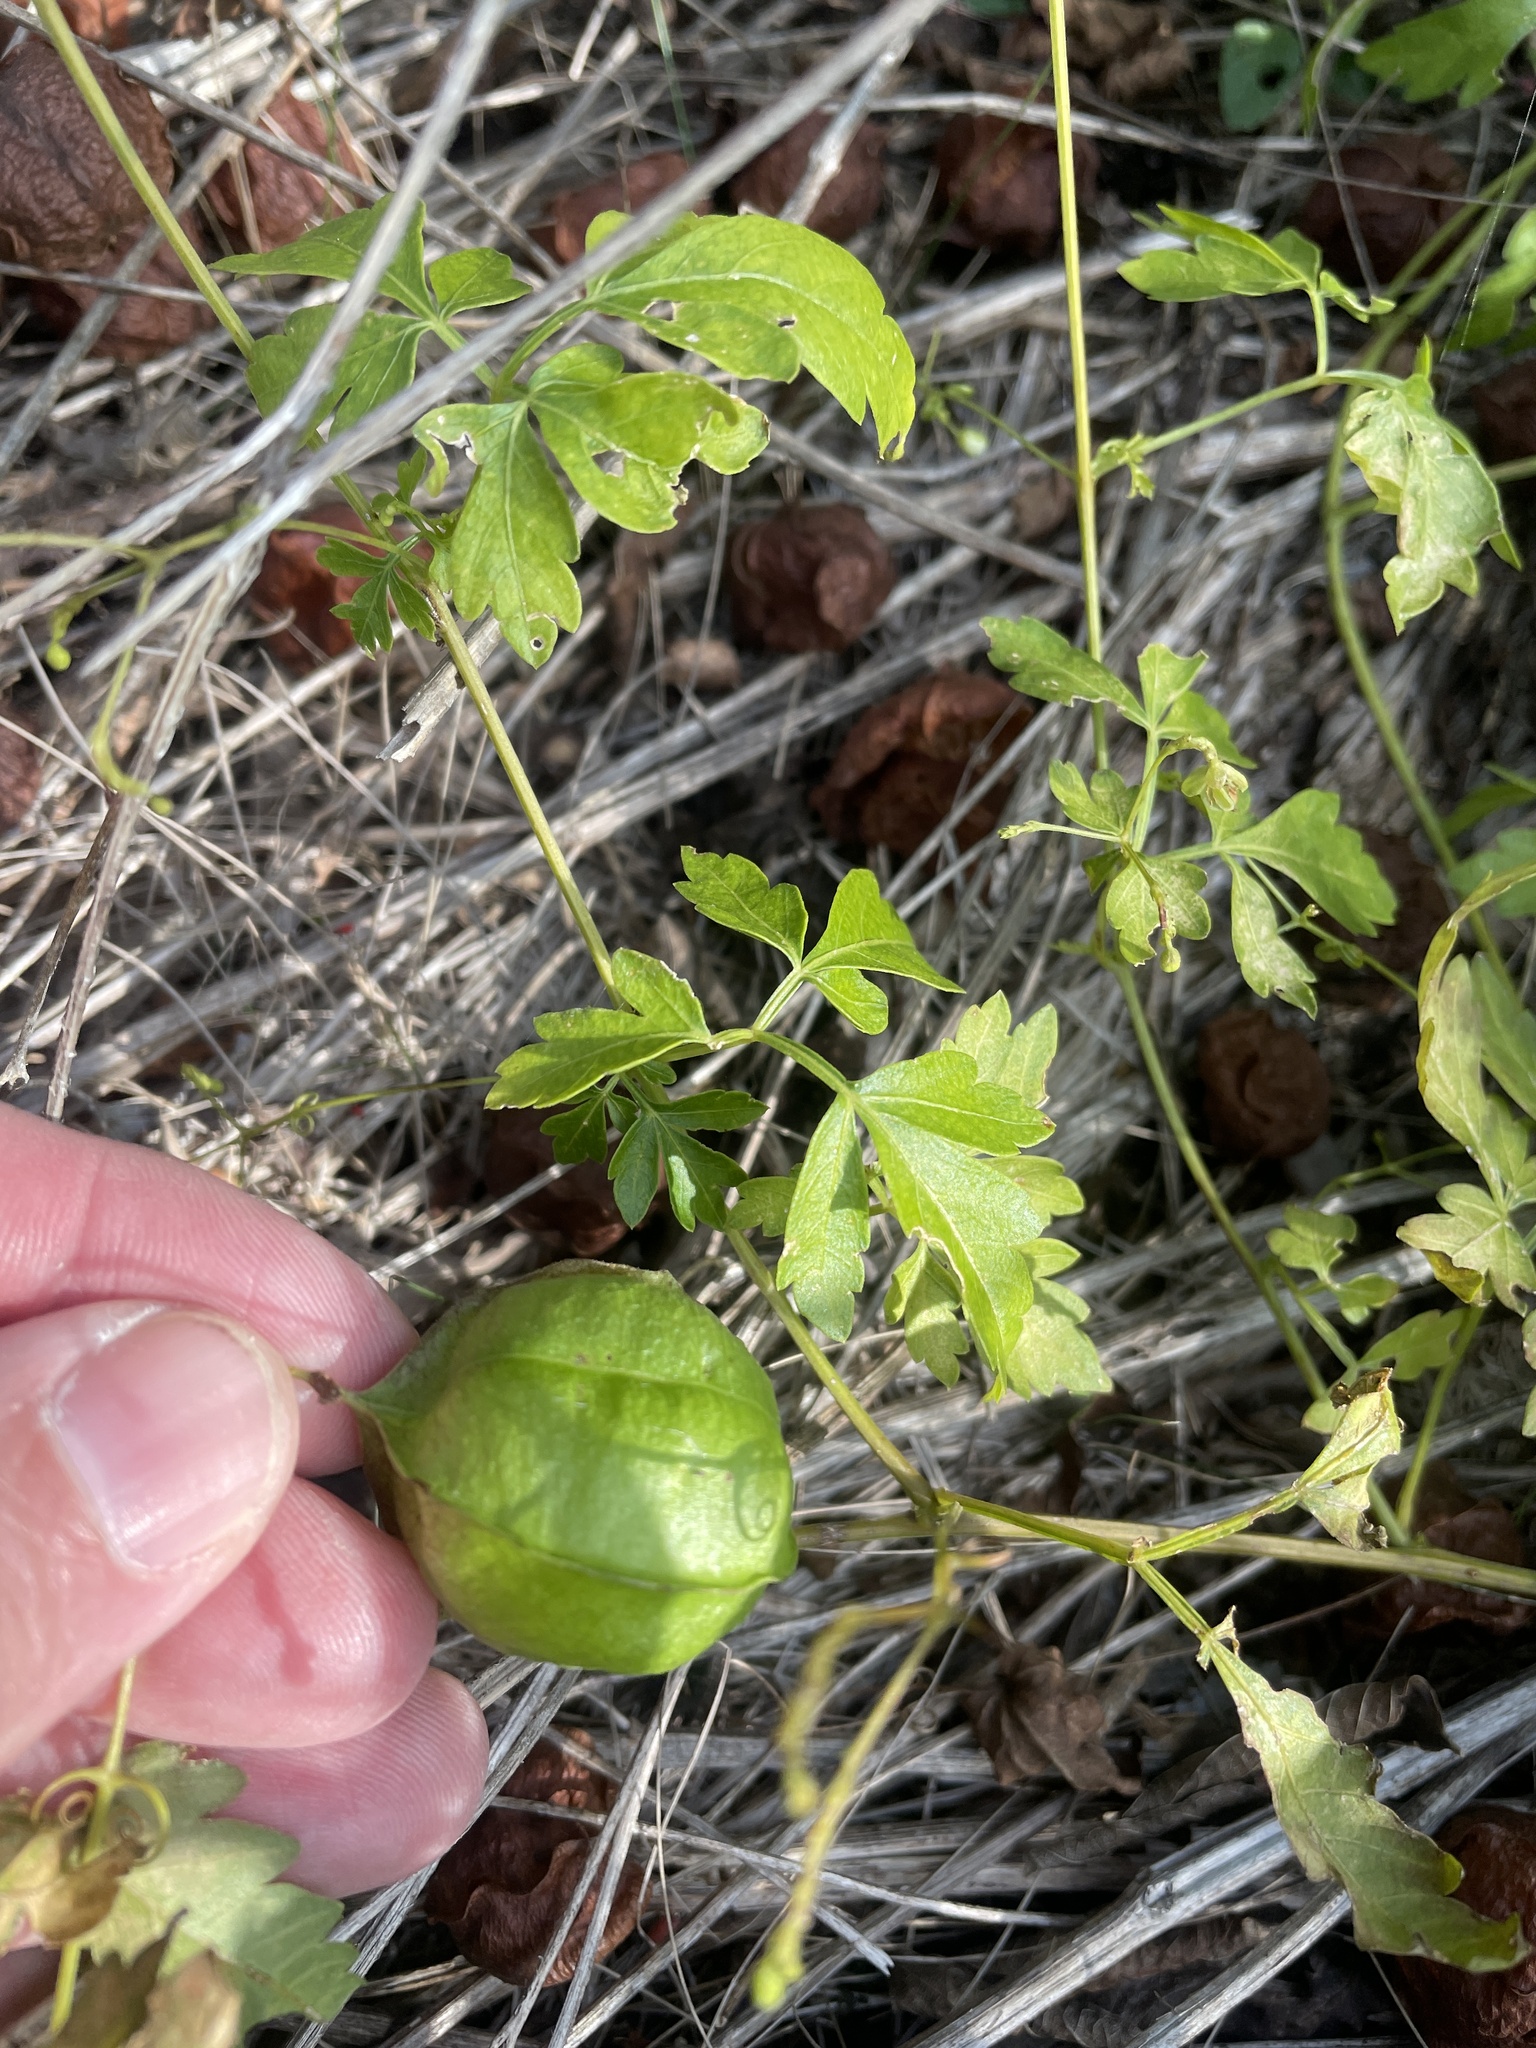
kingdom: Plantae
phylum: Tracheophyta
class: Magnoliopsida
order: Sapindales
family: Sapindaceae
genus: Cardiospermum
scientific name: Cardiospermum halicacabum
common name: Balloon vine
